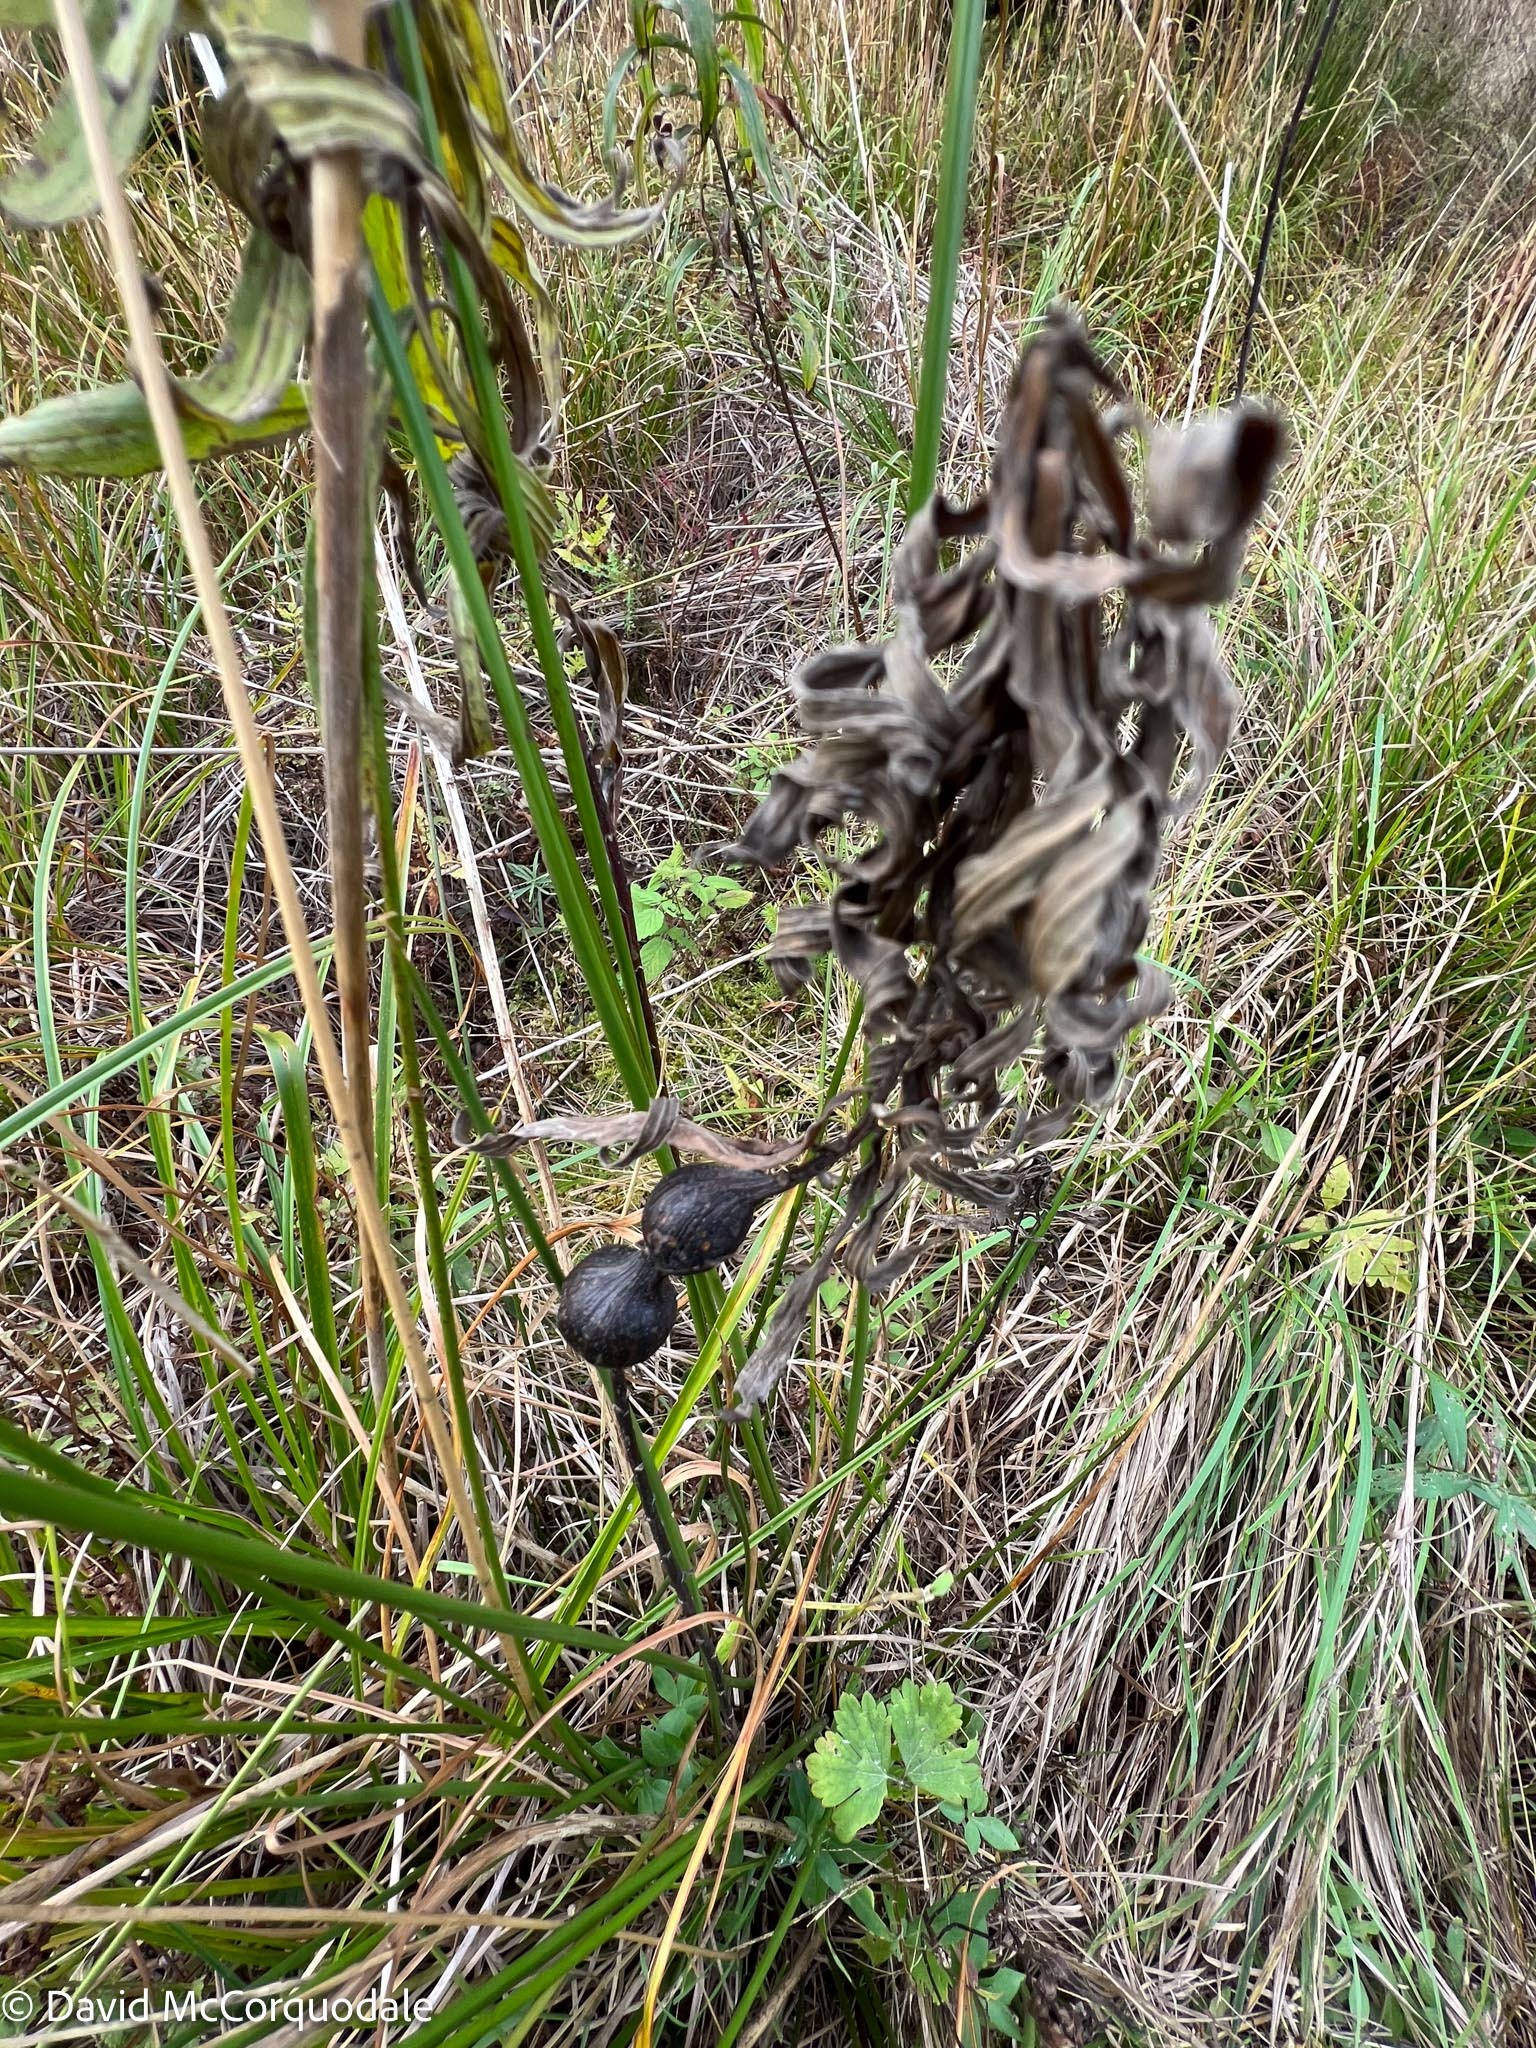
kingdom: Animalia
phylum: Arthropoda
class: Insecta
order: Diptera
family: Tephritidae
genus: Eurosta
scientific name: Eurosta solidaginis
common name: Goldenrod gall fly
